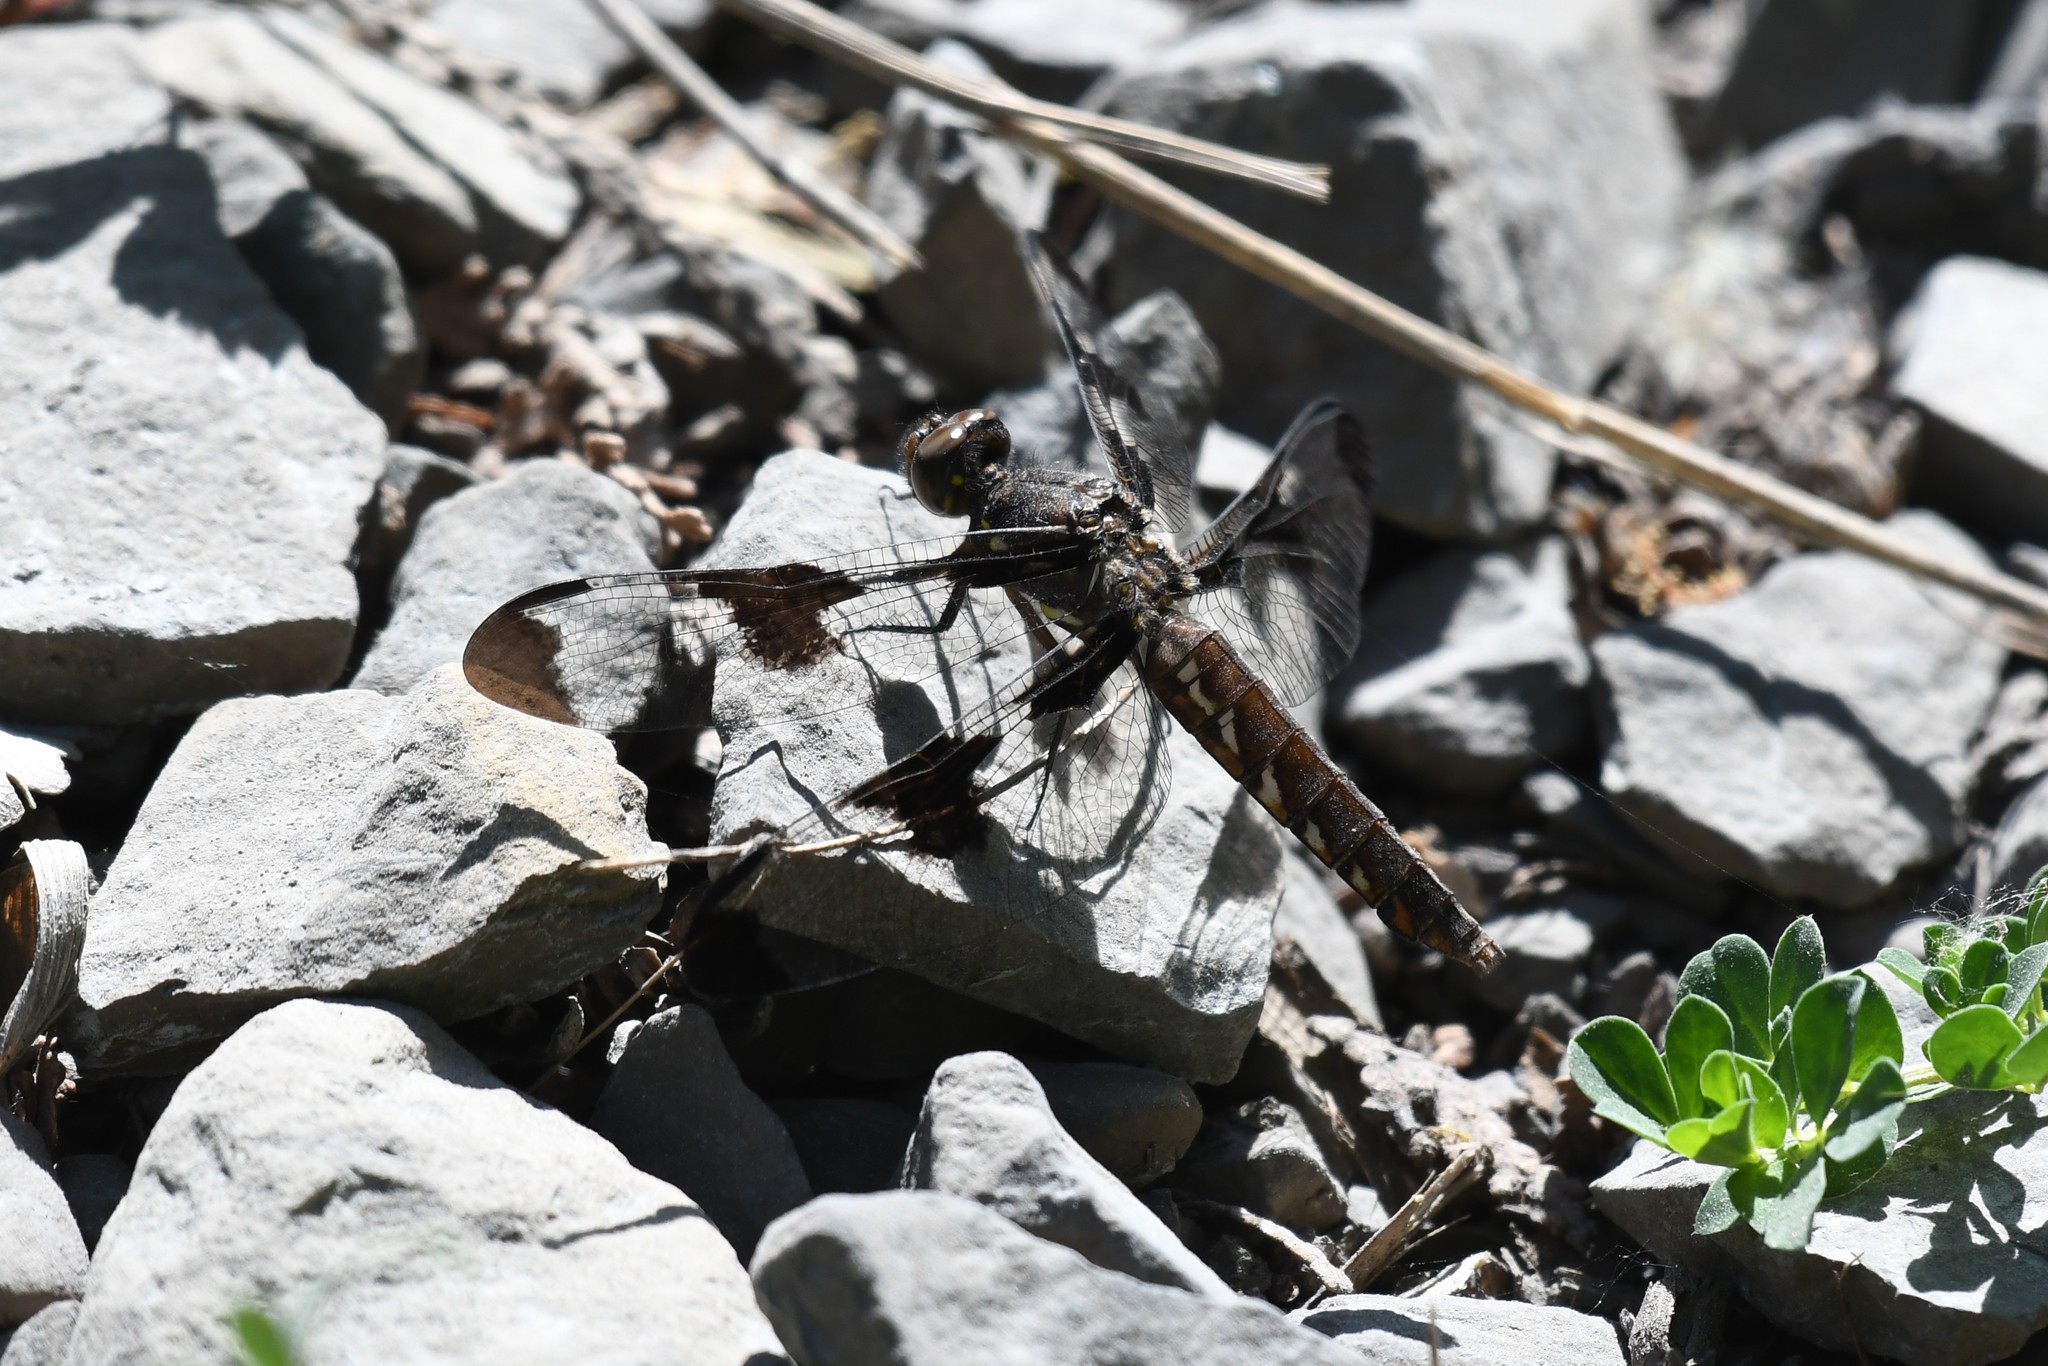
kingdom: Animalia
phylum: Arthropoda
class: Insecta
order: Odonata
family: Libellulidae
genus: Plathemis
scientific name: Plathemis lydia
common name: Common whitetail
